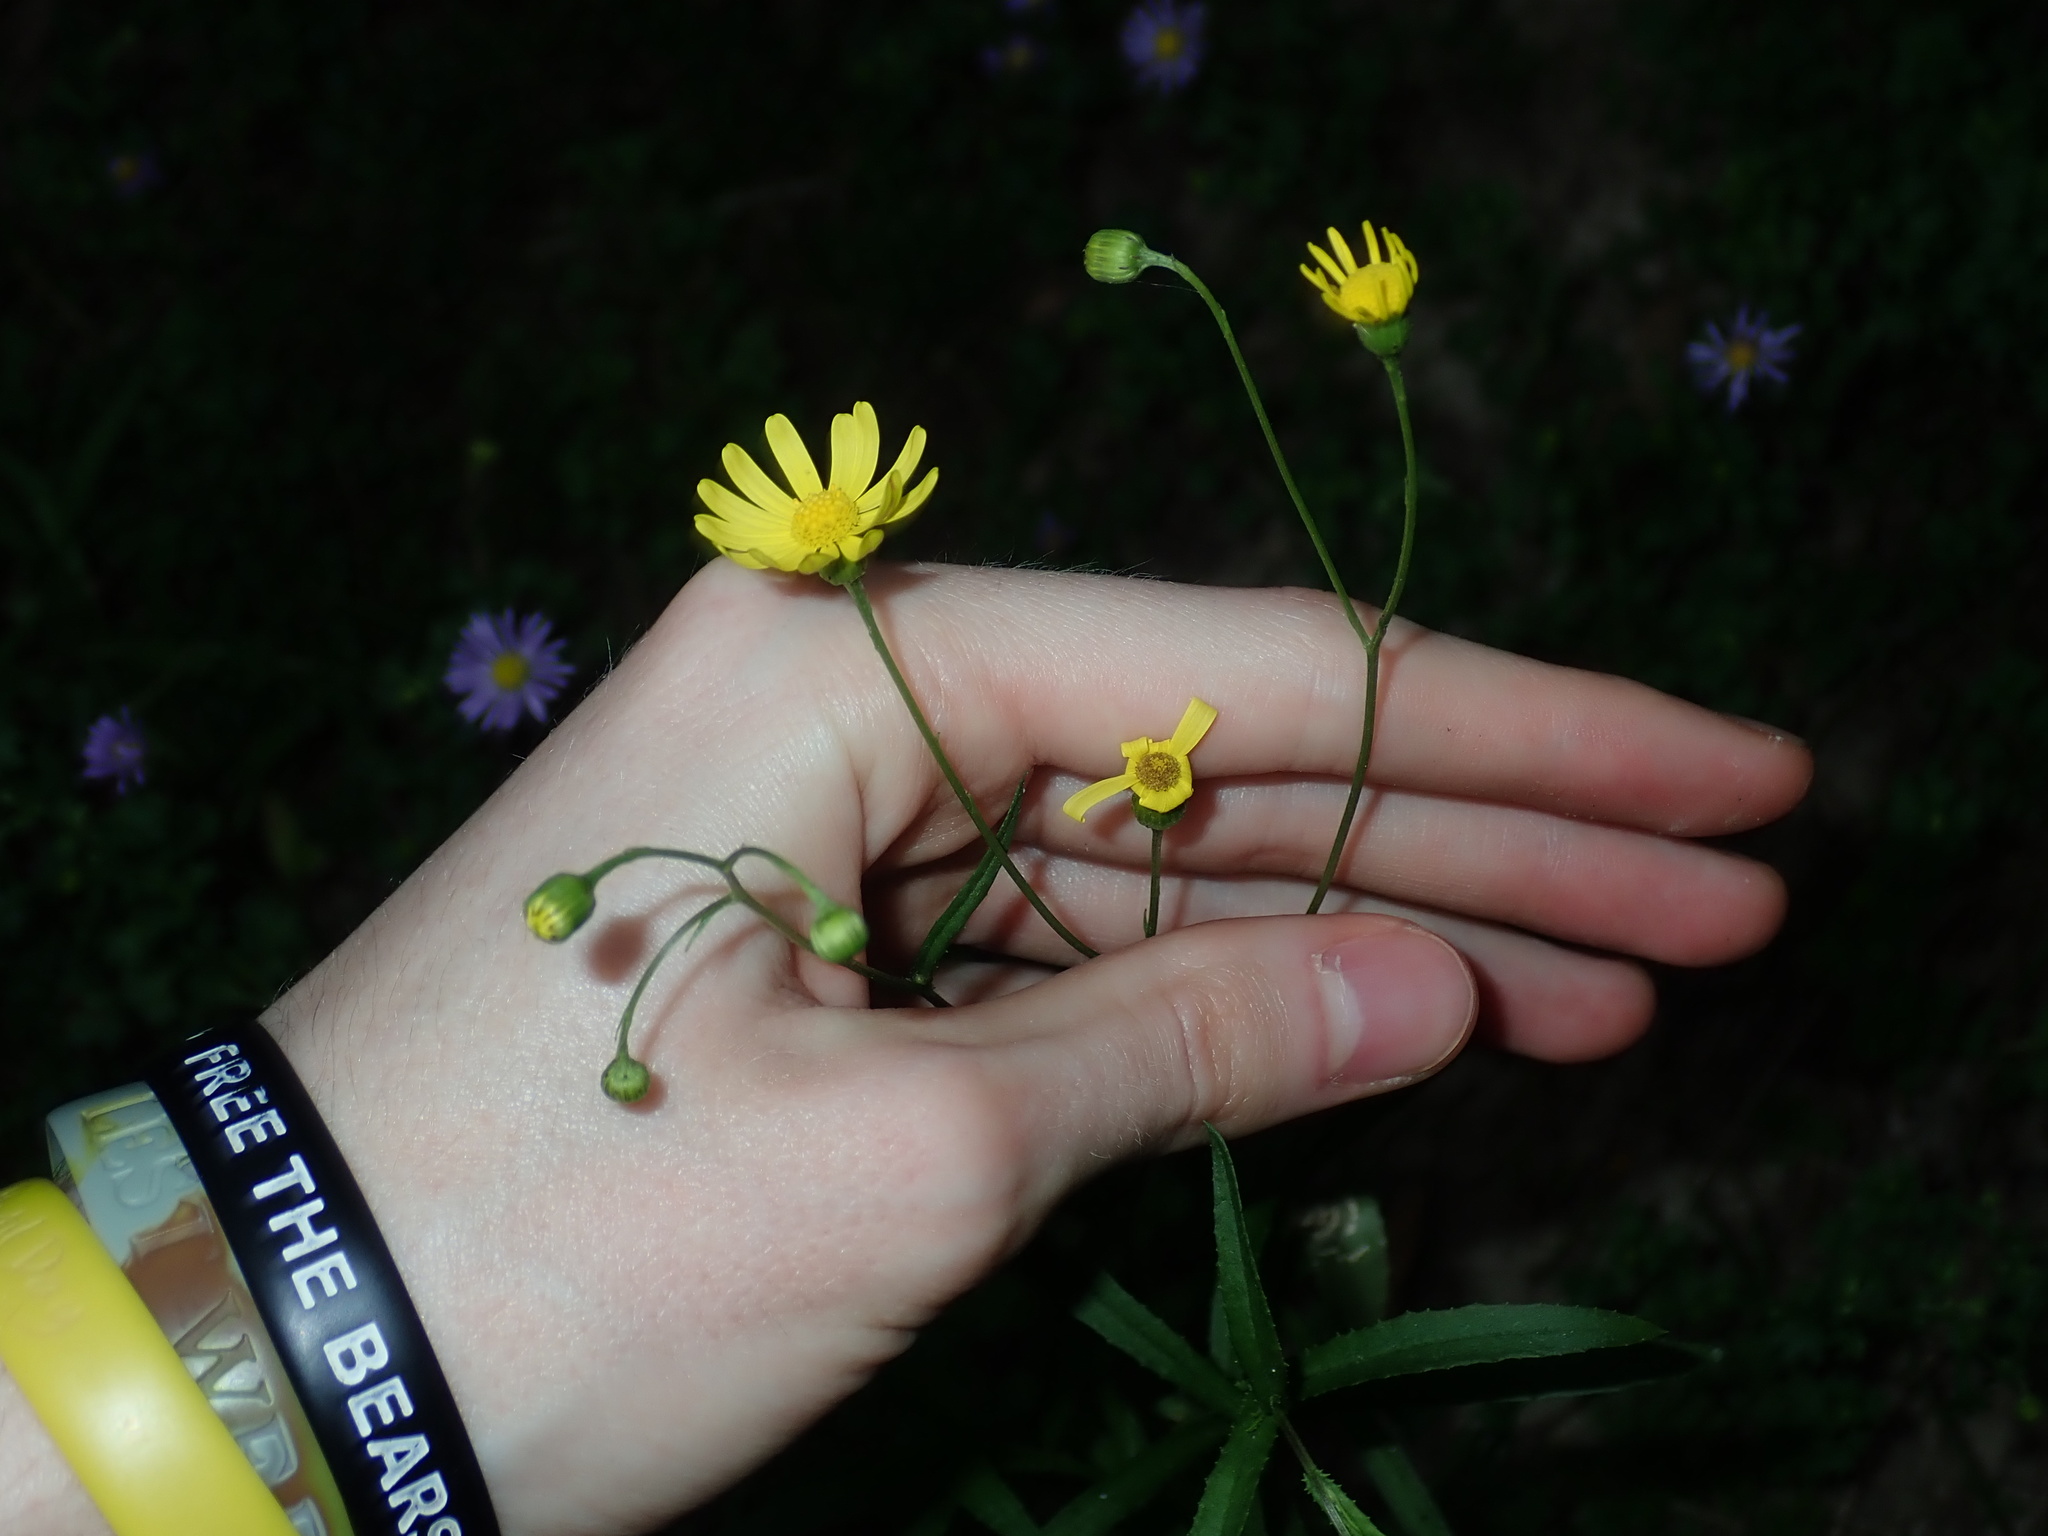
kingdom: Plantae
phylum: Tracheophyta
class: Magnoliopsida
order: Asterales
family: Asteraceae
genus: Senecio
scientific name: Senecio madagascariensis
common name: Madagascar ragwort
